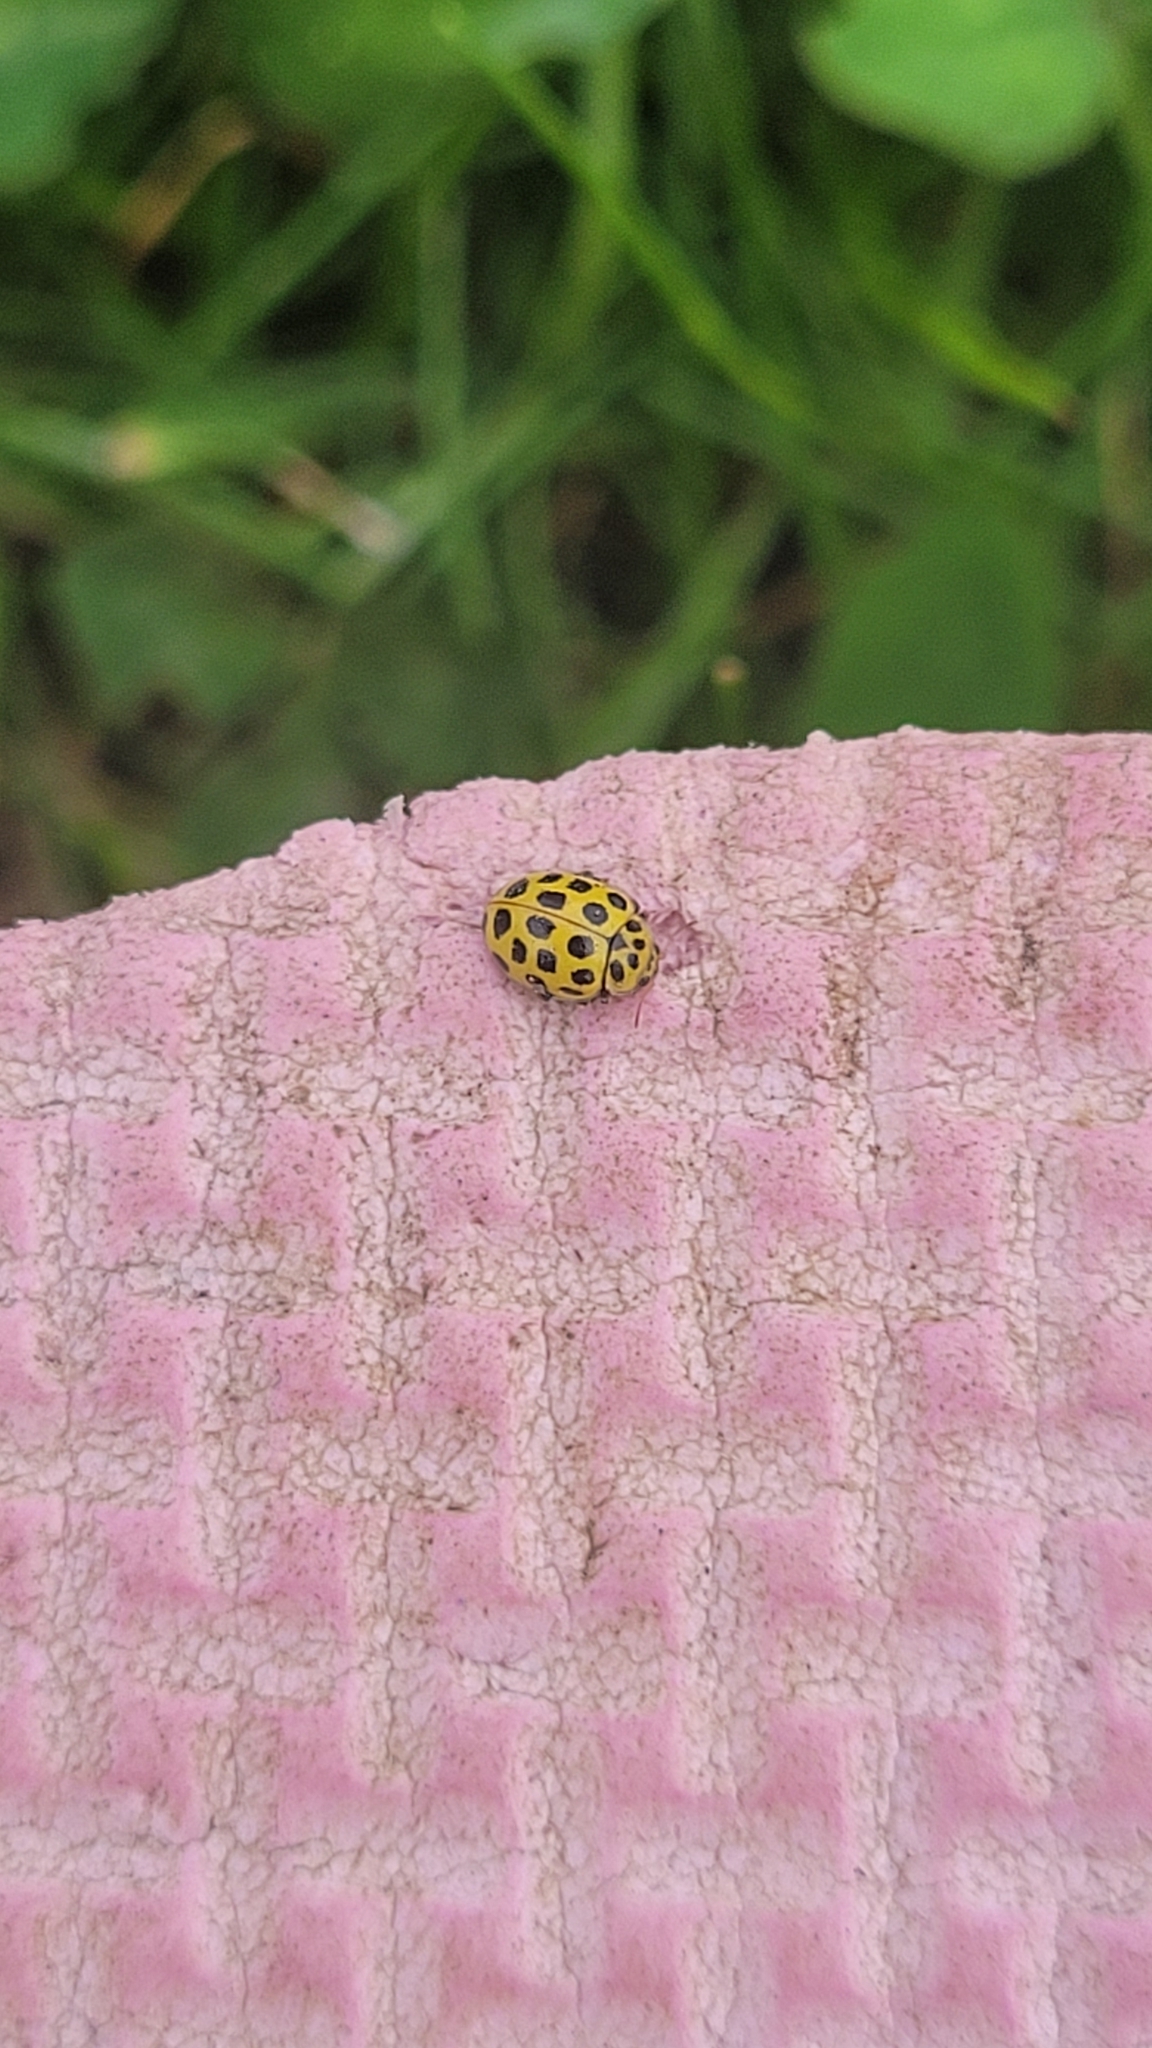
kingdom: Animalia
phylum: Arthropoda
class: Insecta
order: Coleoptera
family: Coccinellidae
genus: Psyllobora
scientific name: Psyllobora vigintiduopunctata
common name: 22-spot ladybird
